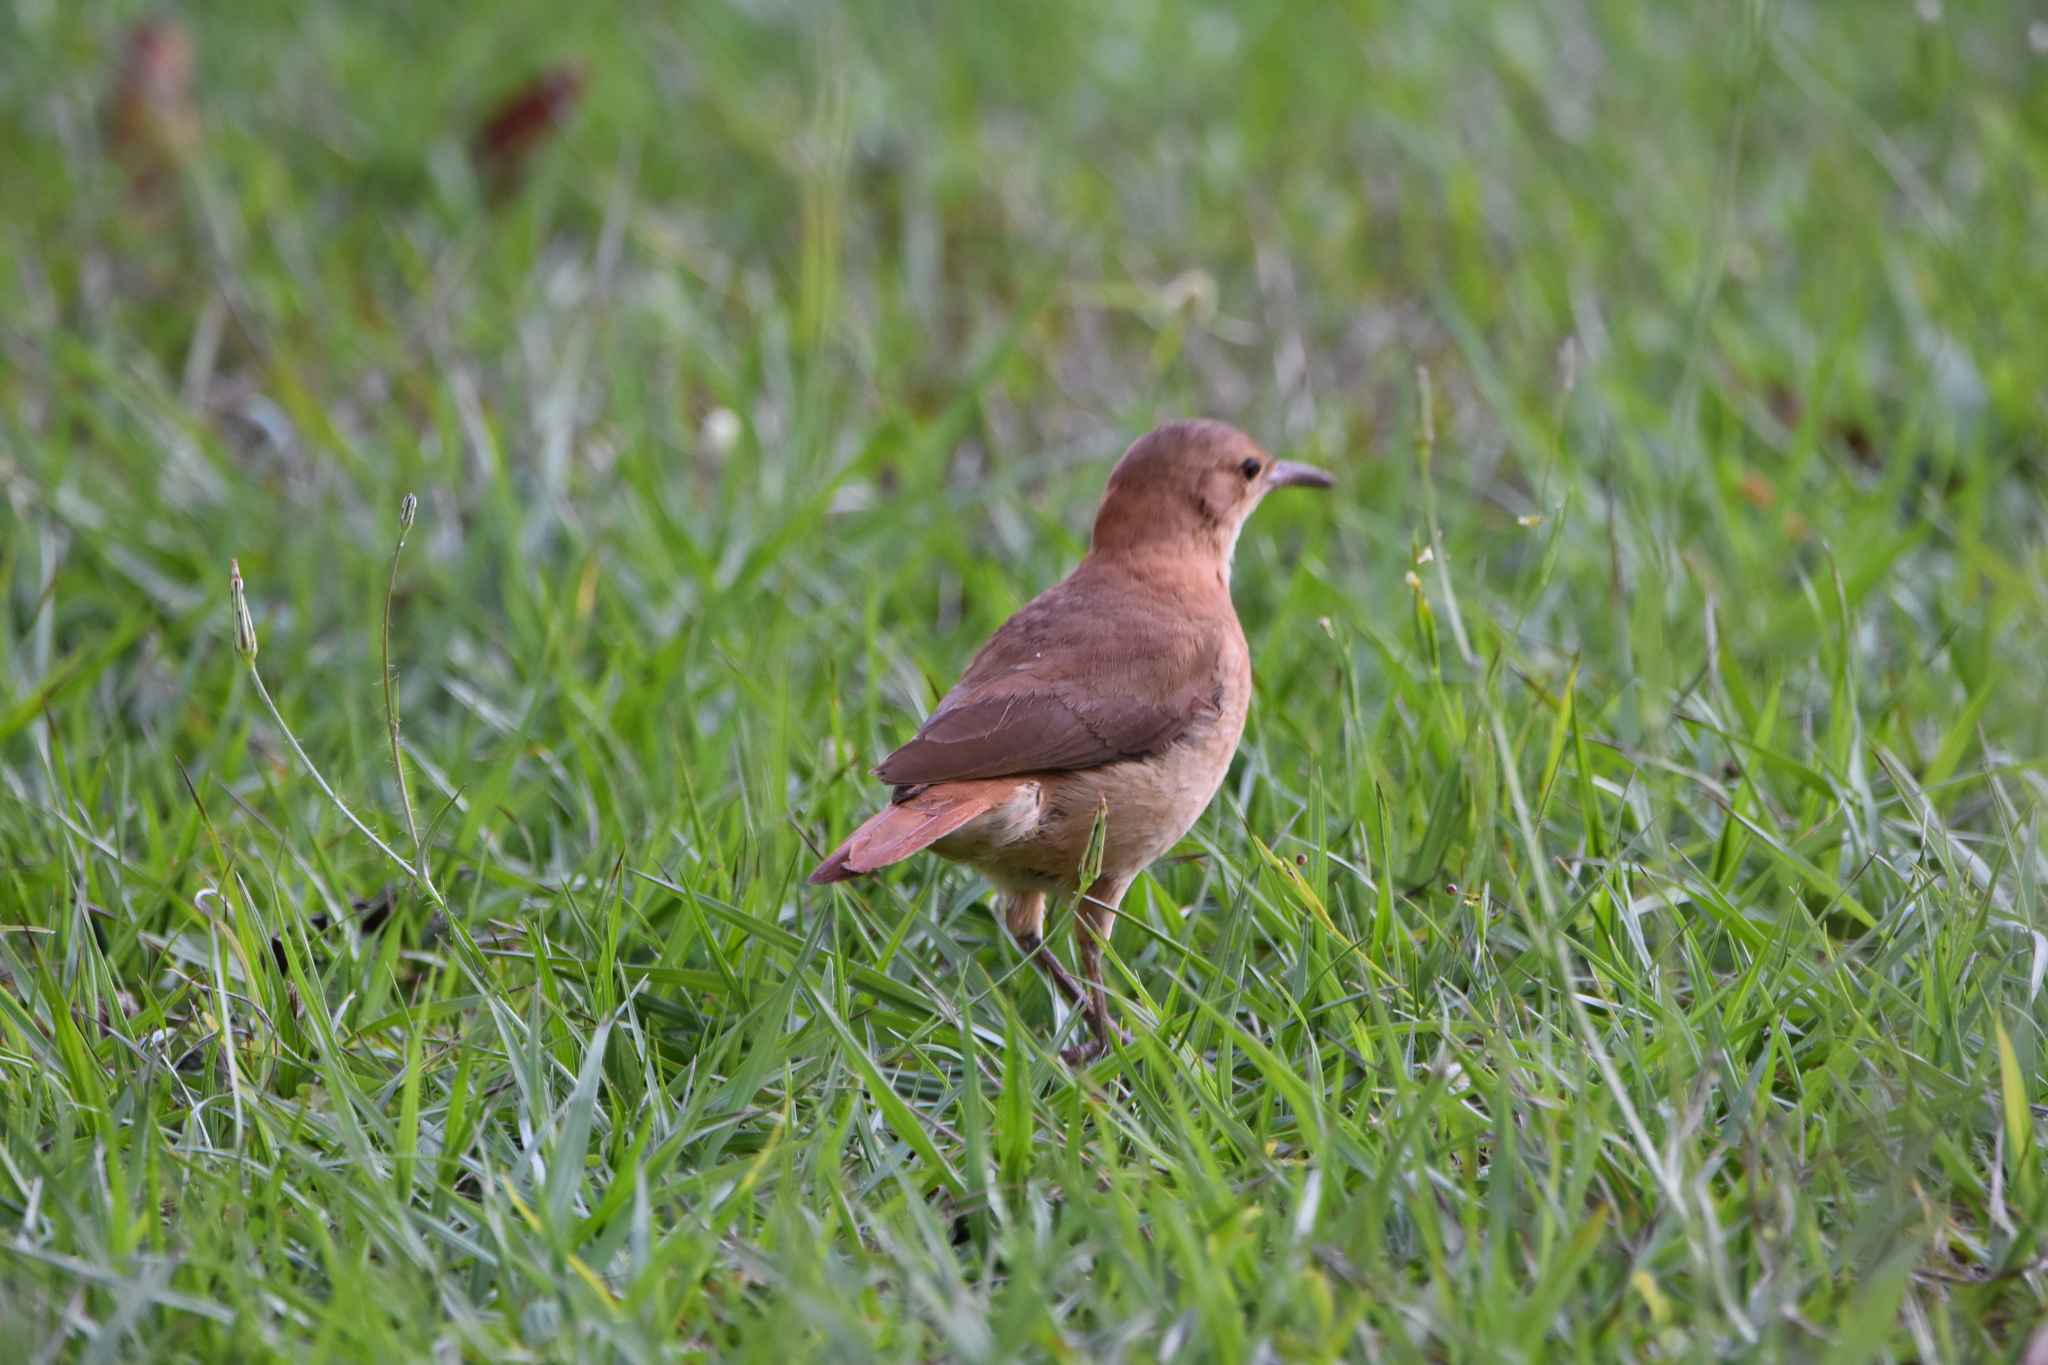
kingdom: Animalia
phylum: Chordata
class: Aves
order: Passeriformes
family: Furnariidae
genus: Furnarius
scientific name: Furnarius rufus
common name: Rufous hornero
